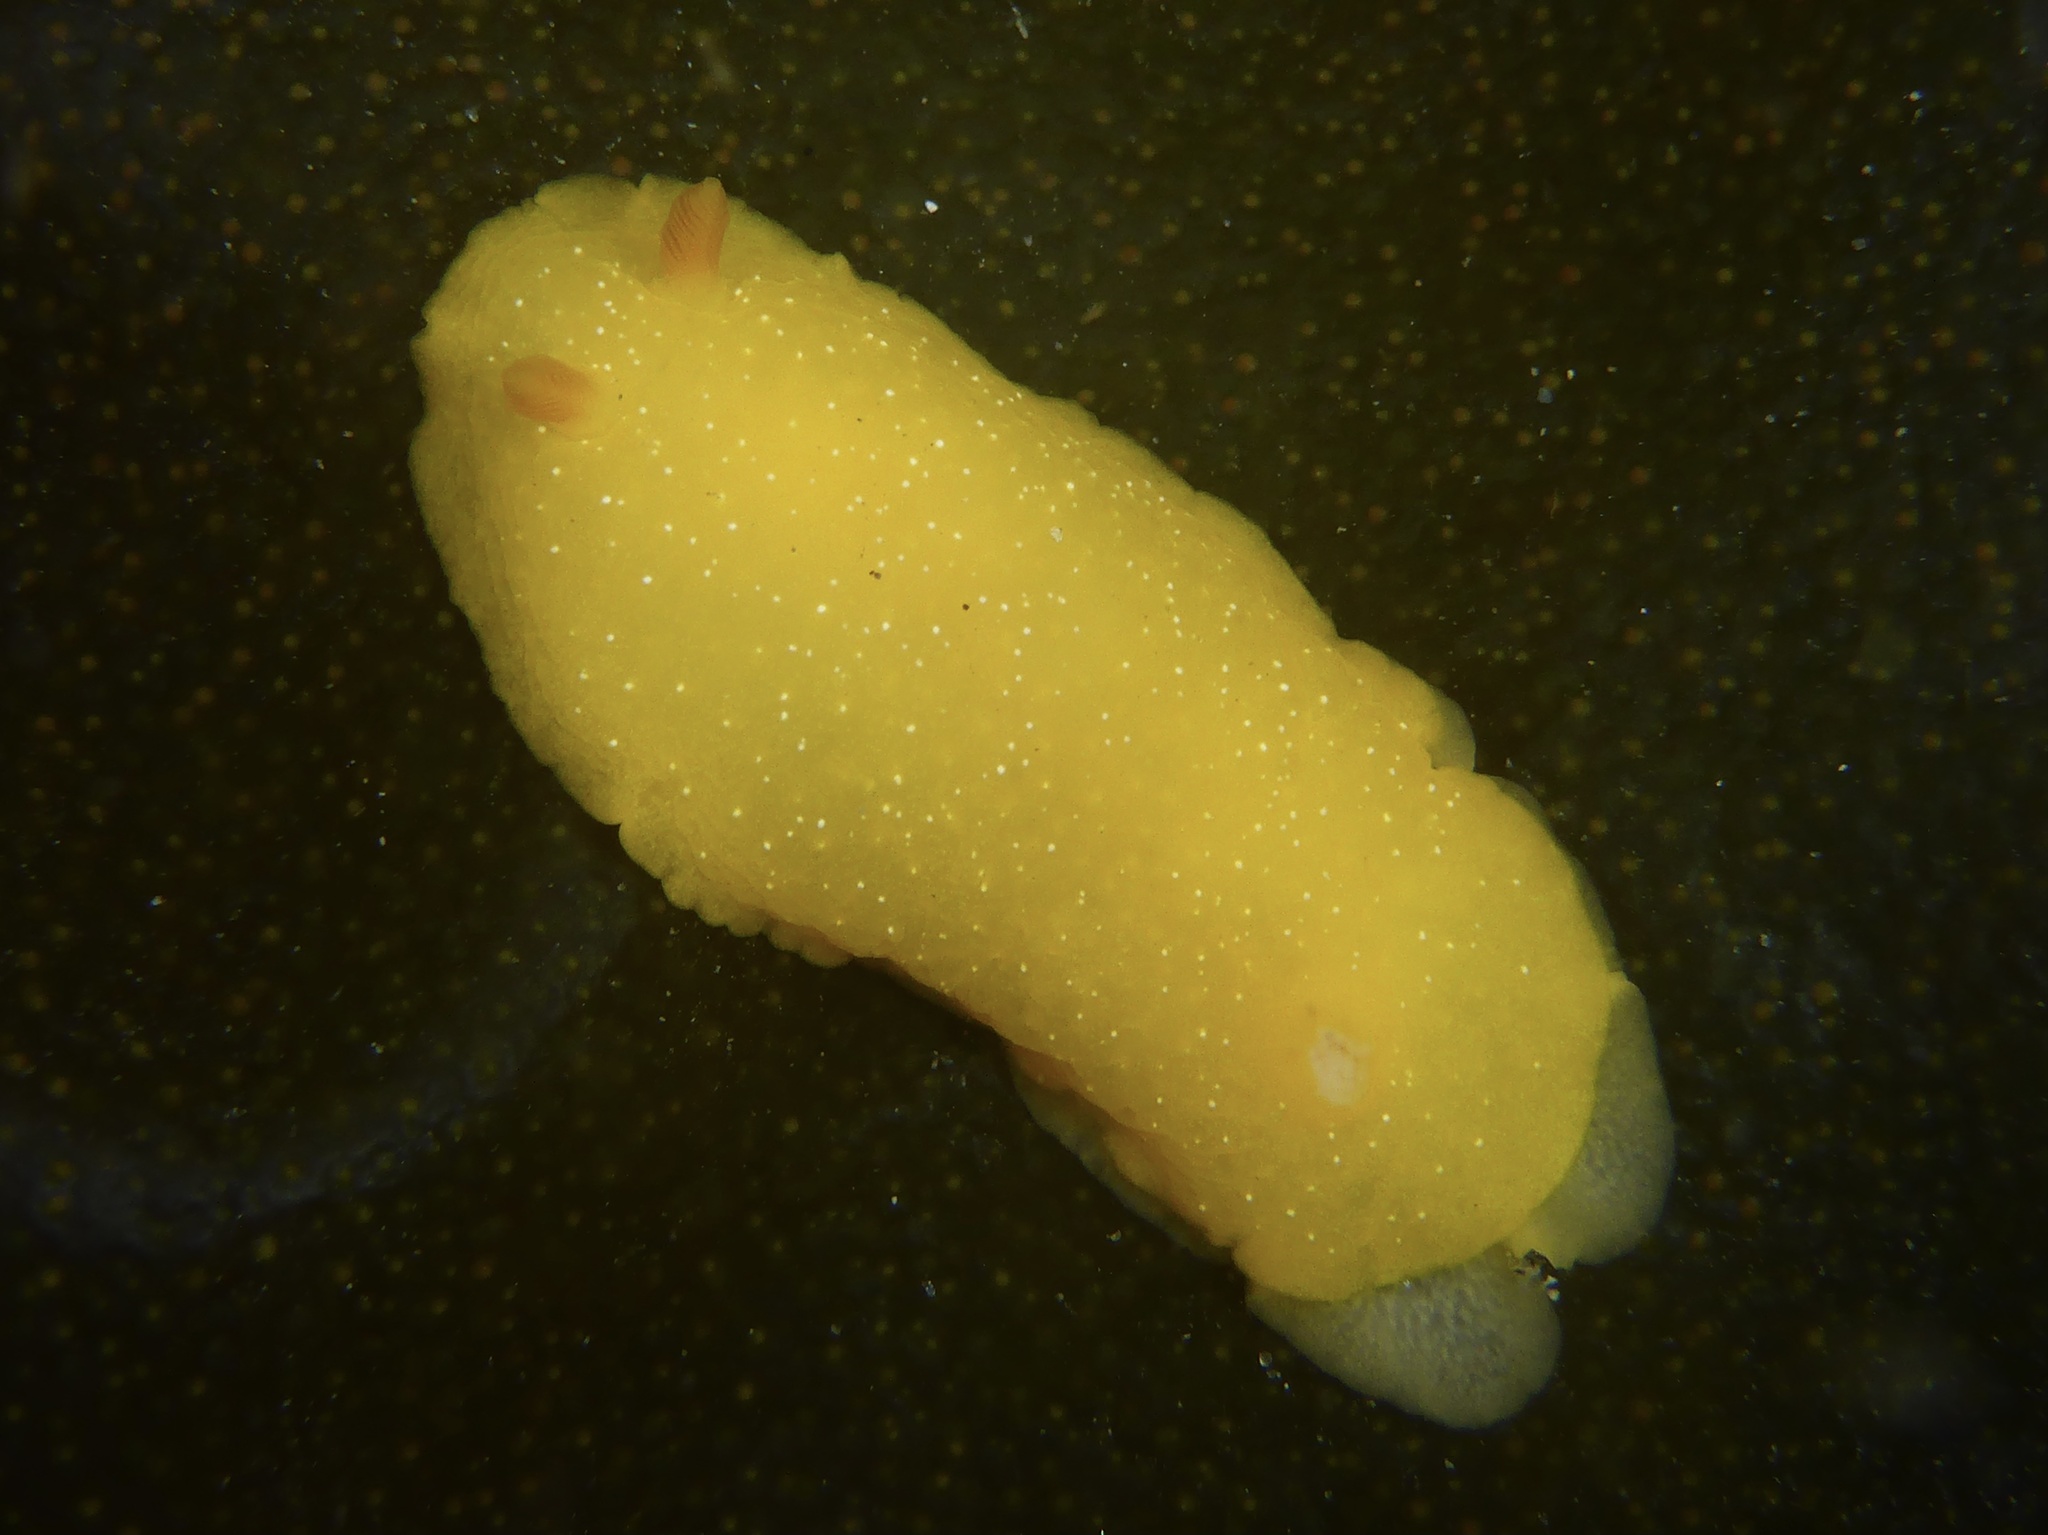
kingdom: Animalia
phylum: Mollusca
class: Gastropoda
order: Nudibranchia
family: Dendrodorididae
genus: Doriopsilla
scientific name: Doriopsilla fulva
